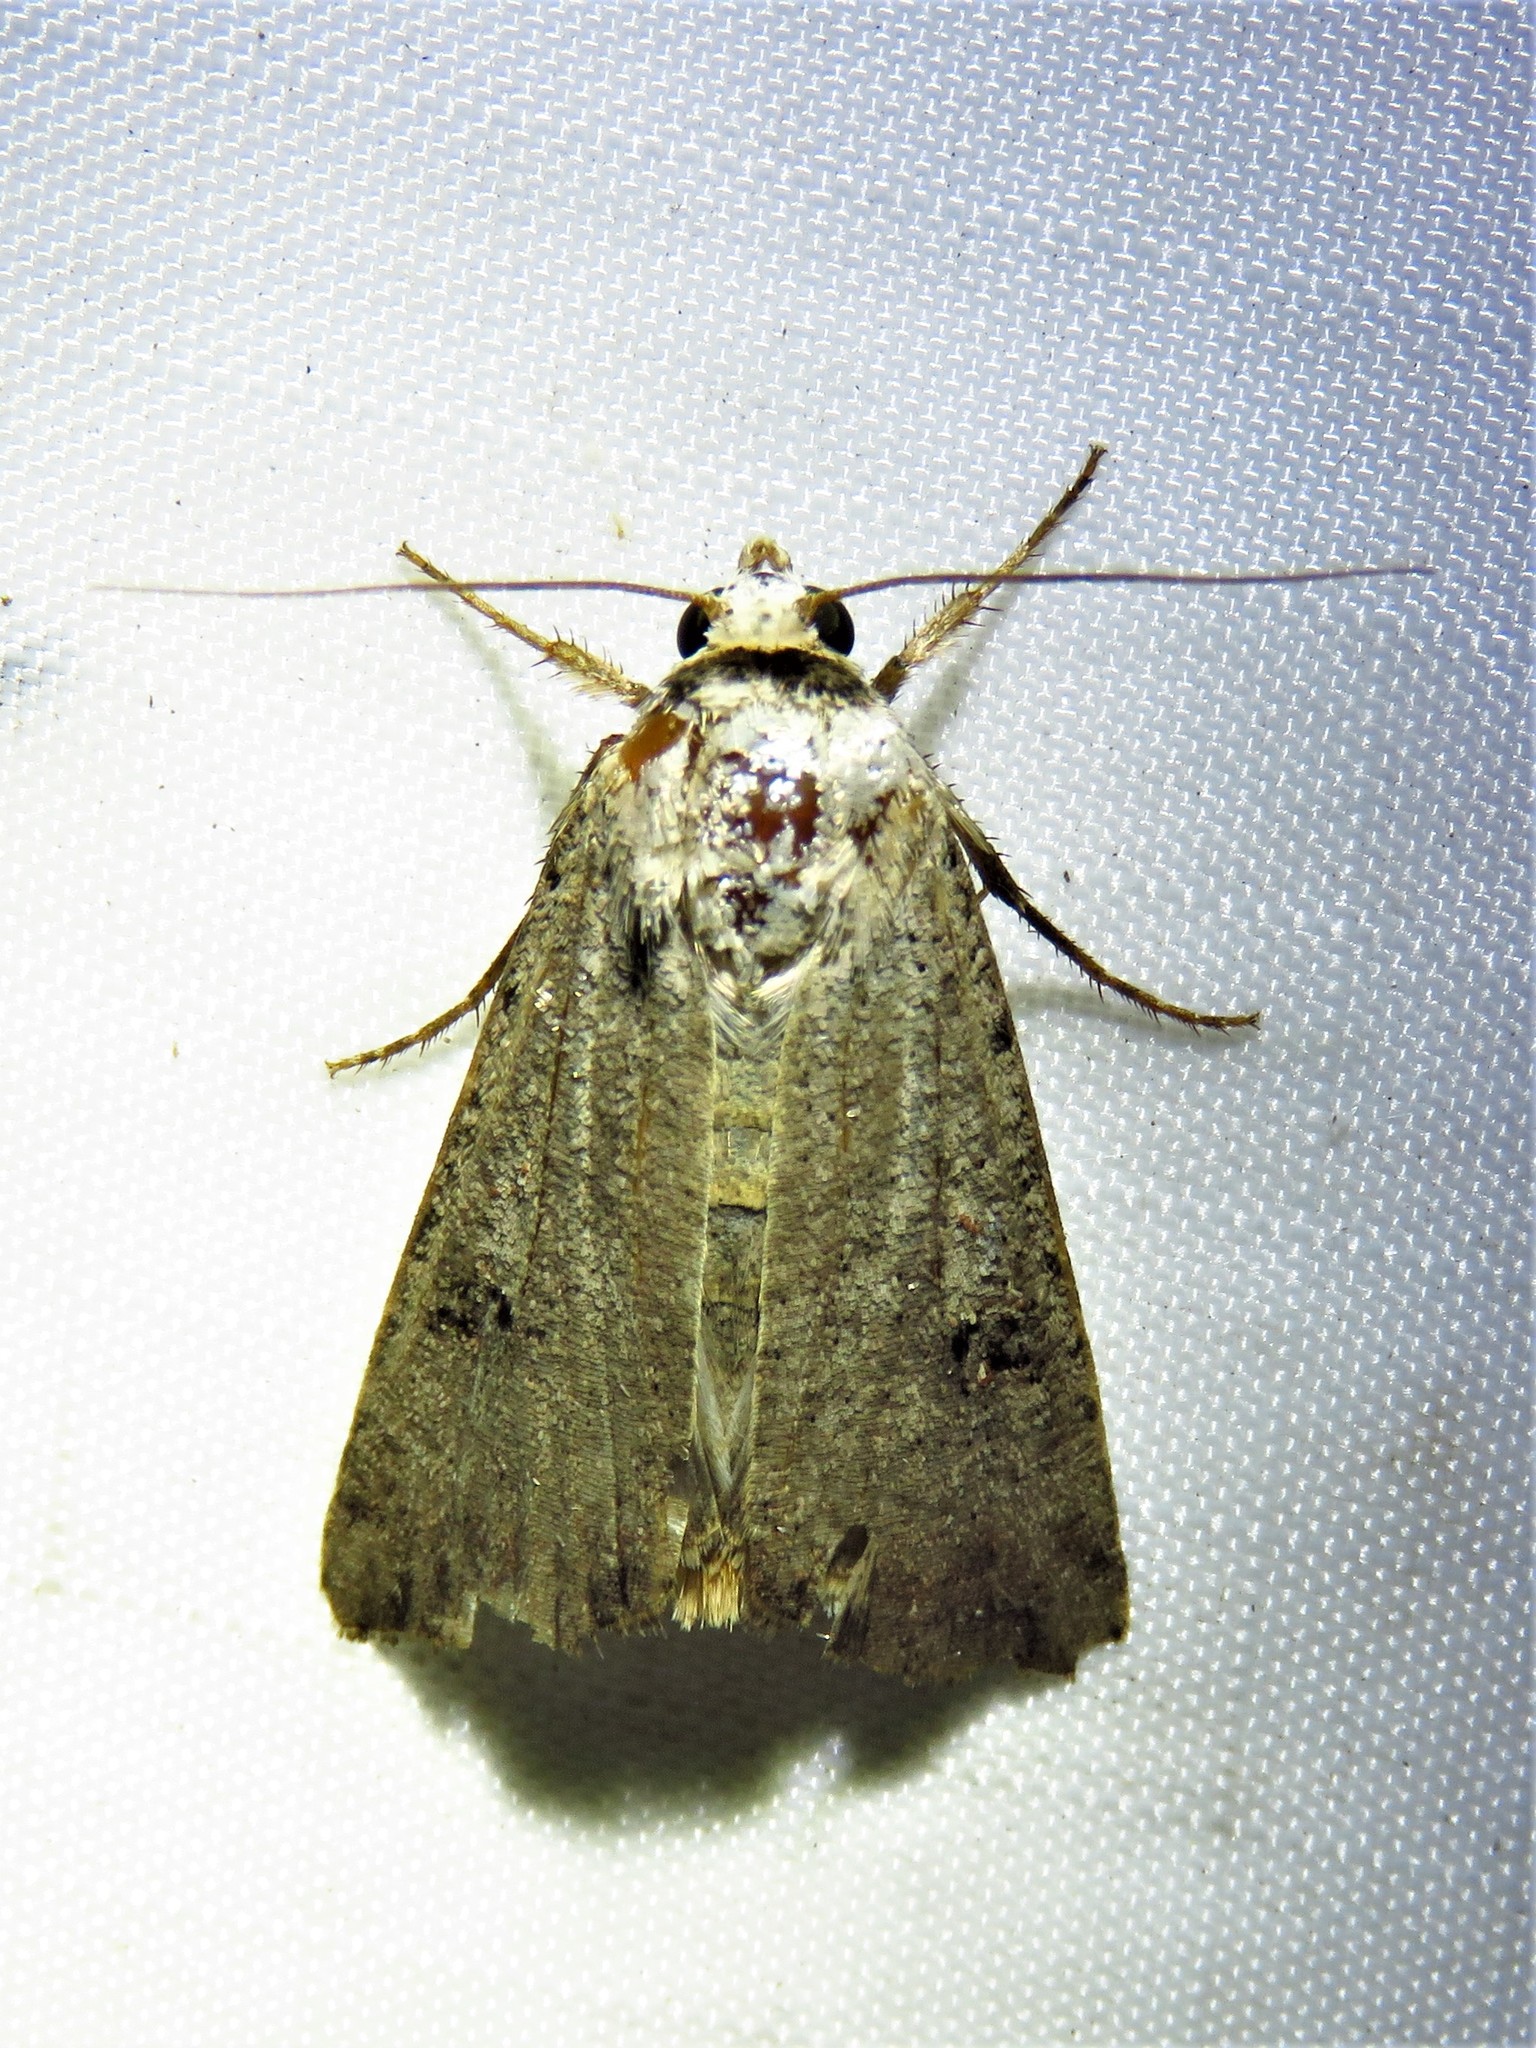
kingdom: Animalia
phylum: Arthropoda
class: Insecta
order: Lepidoptera
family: Noctuidae
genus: Anicla
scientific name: Anicla infecta
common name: Green cutworm
